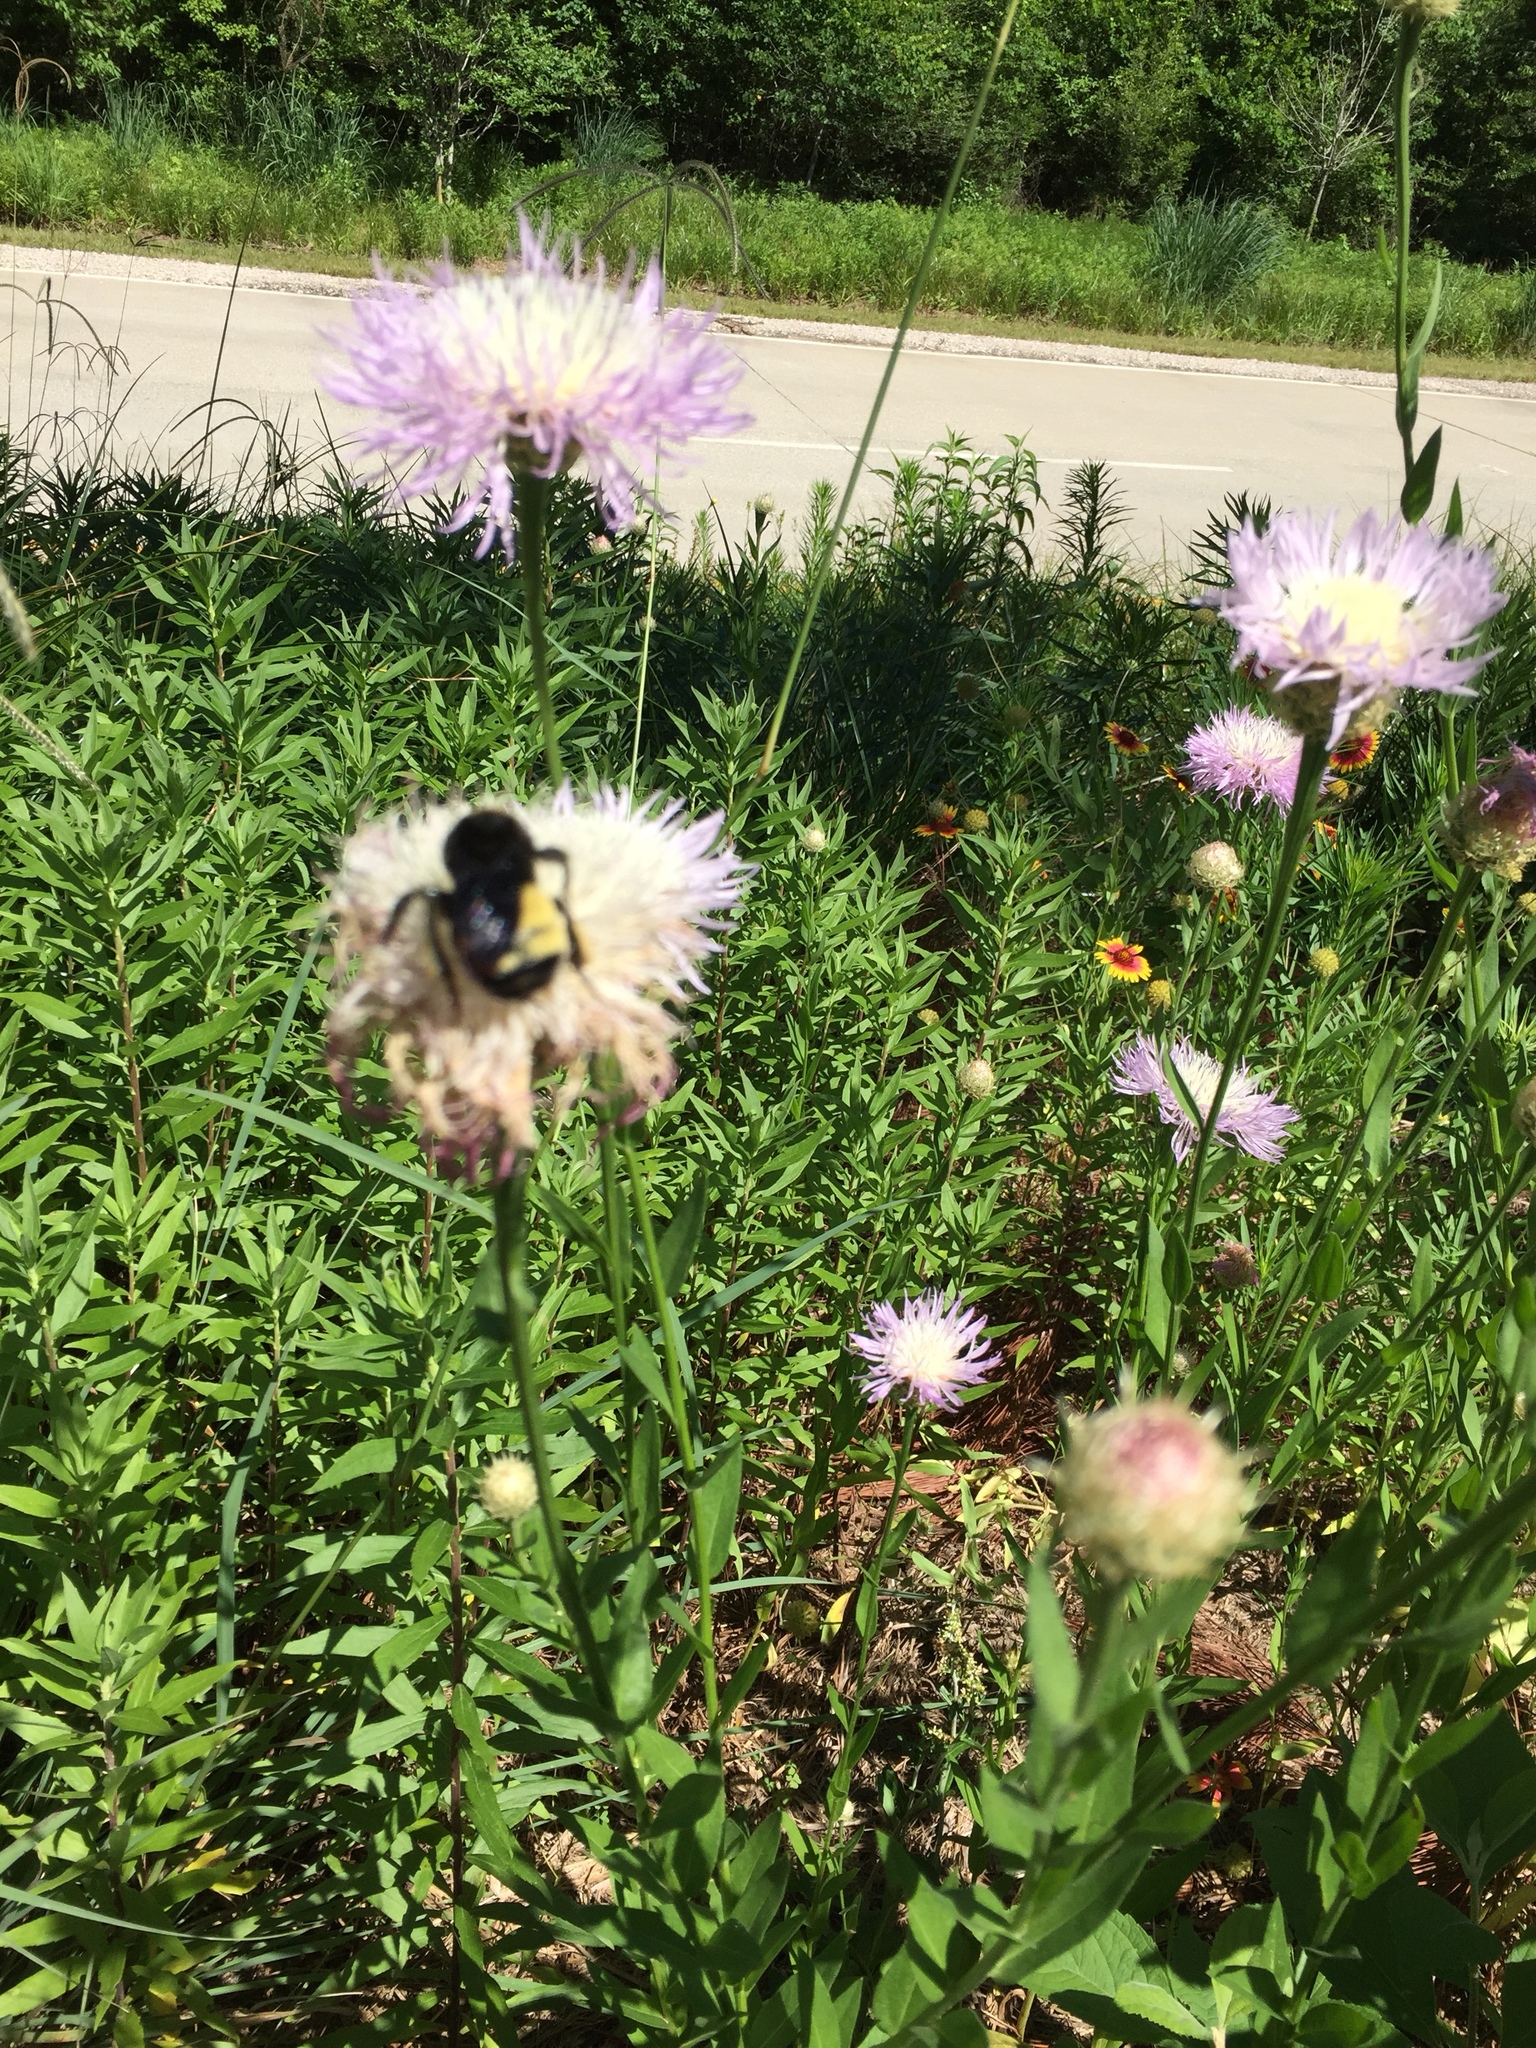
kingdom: Plantae
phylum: Tracheophyta
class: Magnoliopsida
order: Asterales
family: Asteraceae
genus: Plectocephalus
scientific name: Plectocephalus americanus
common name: American basket-flower
